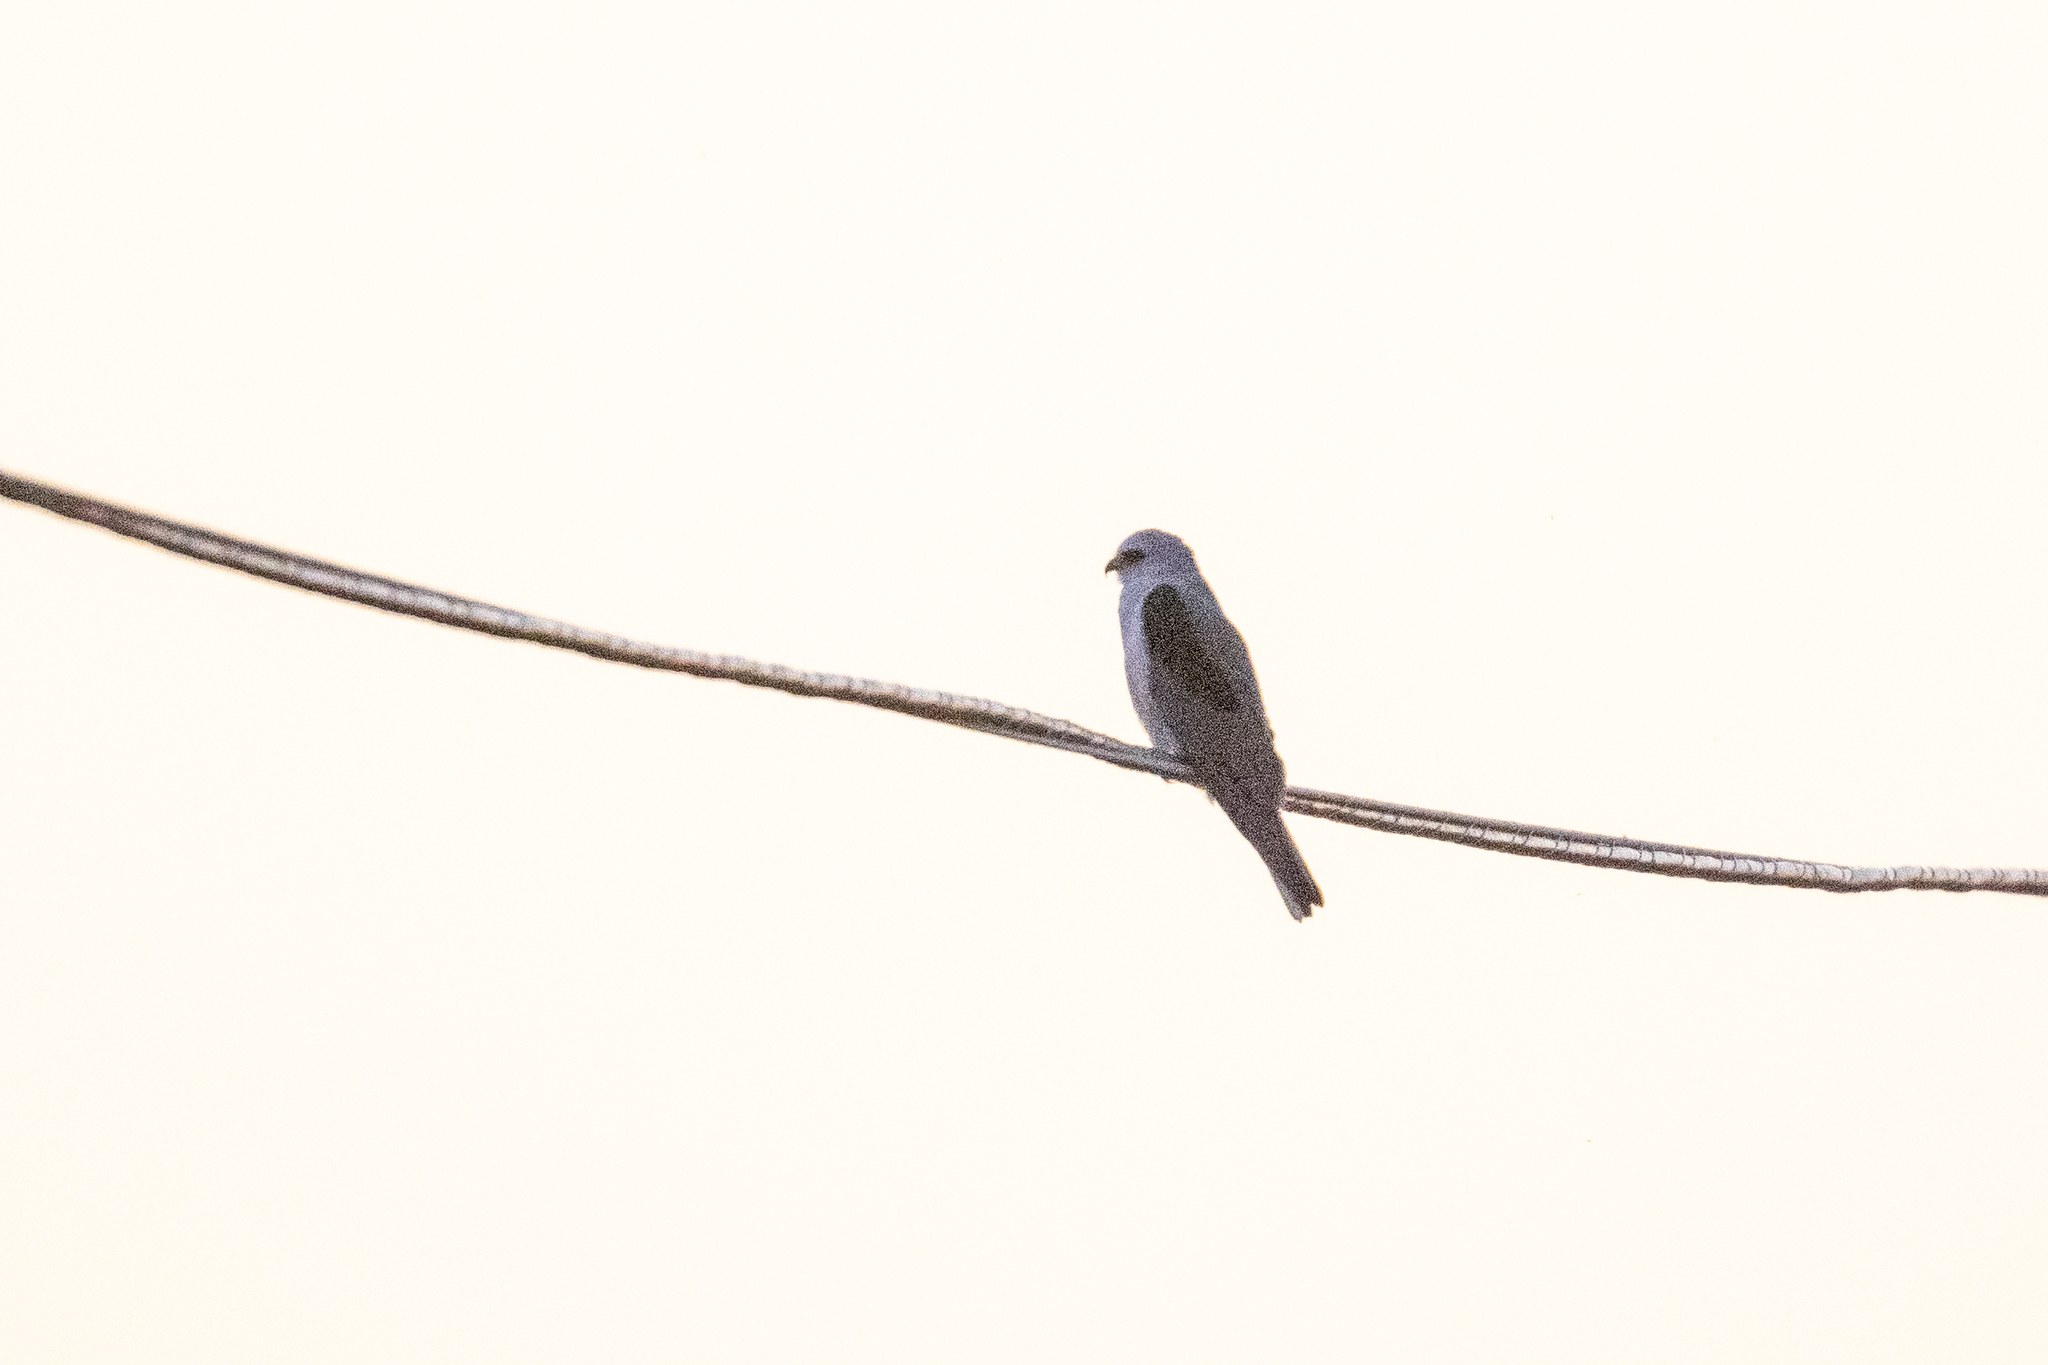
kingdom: Animalia
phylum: Chordata
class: Aves
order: Accipitriformes
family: Accipitridae
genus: Elanus
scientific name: Elanus leucurus
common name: White-tailed kite
